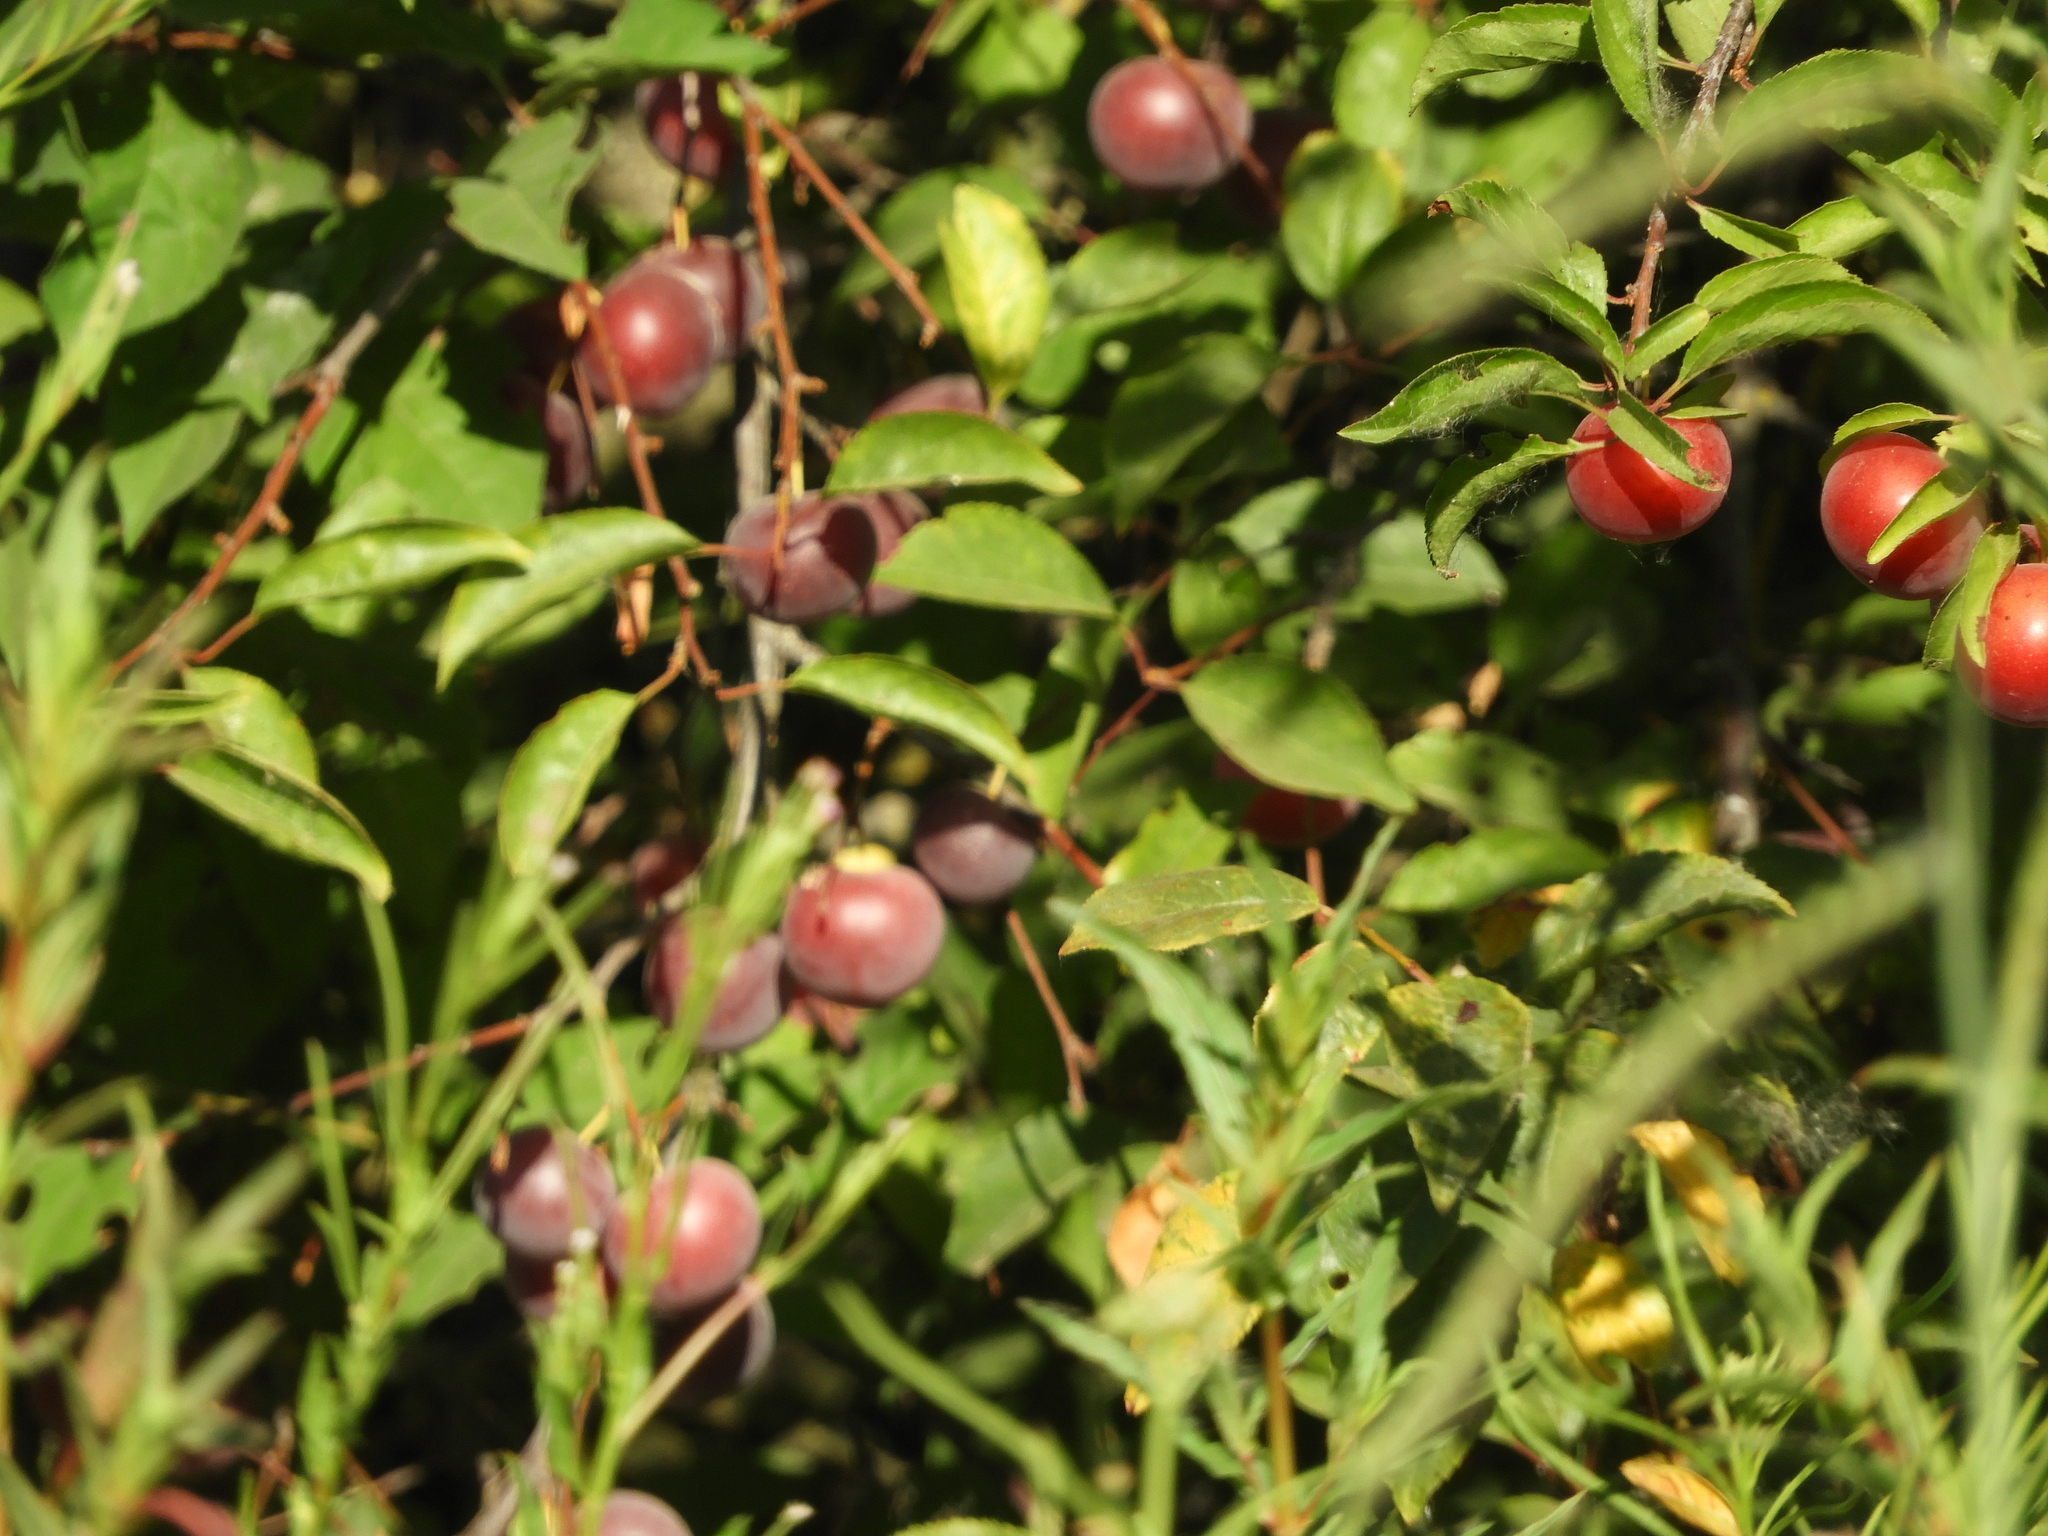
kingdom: Plantae
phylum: Tracheophyta
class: Magnoliopsida
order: Rosales
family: Rosaceae
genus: Prunus
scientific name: Prunus cerasifera
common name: Cherry plum
